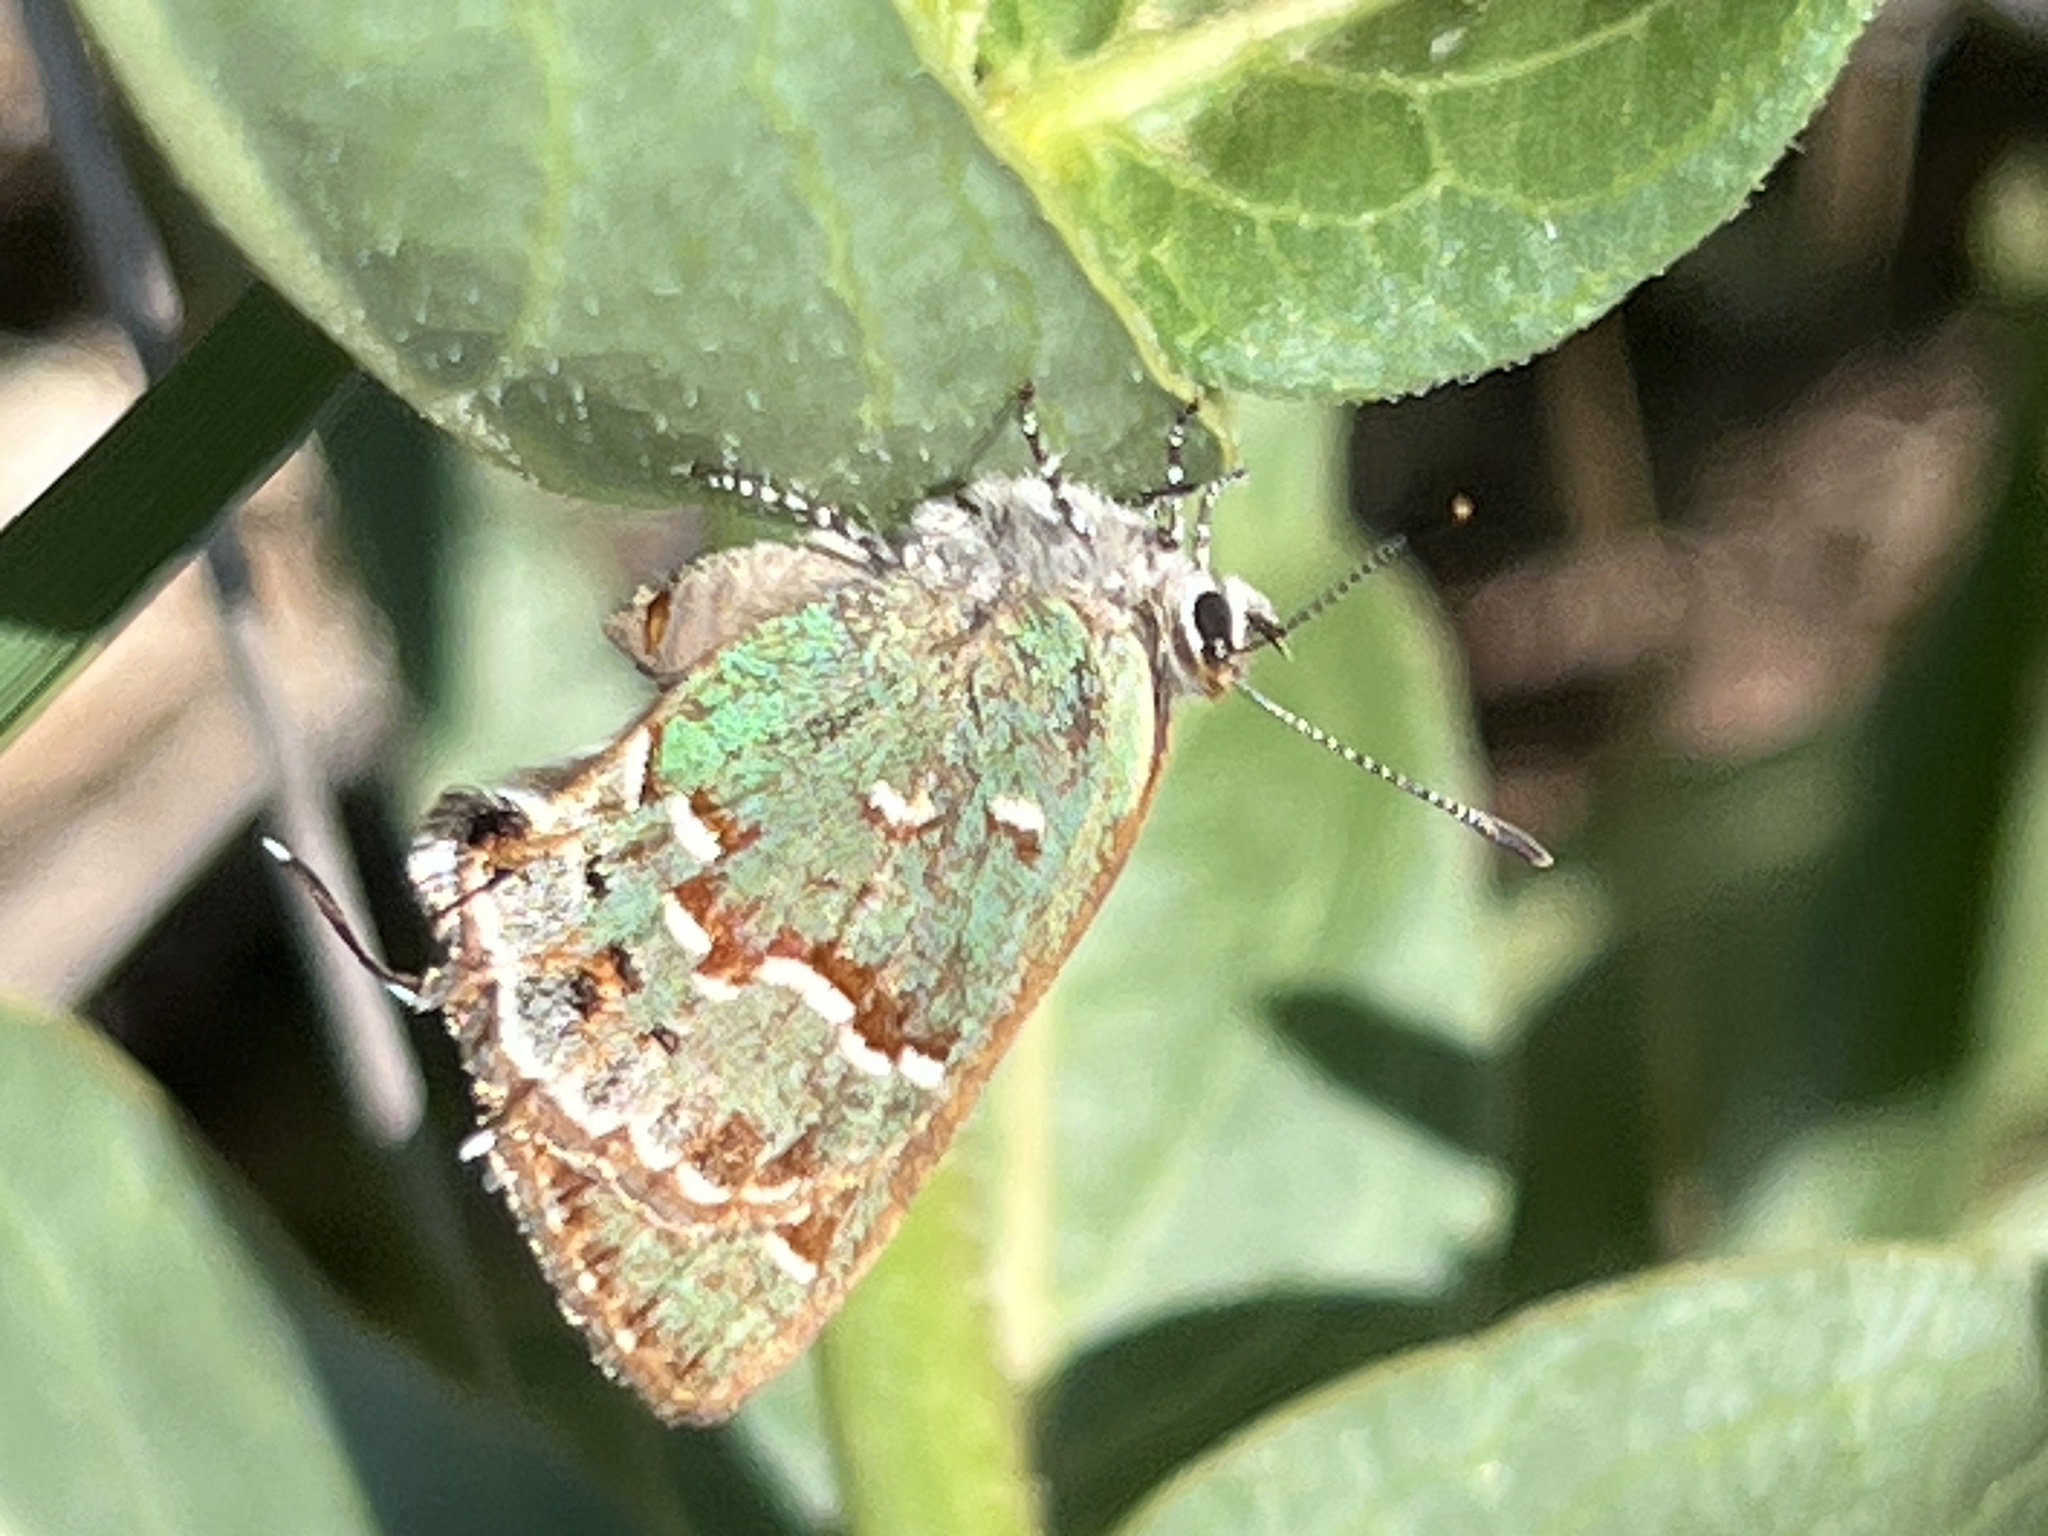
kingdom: Animalia
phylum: Arthropoda
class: Insecta
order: Lepidoptera
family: Lycaenidae
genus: Mitoura
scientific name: Mitoura gryneus
